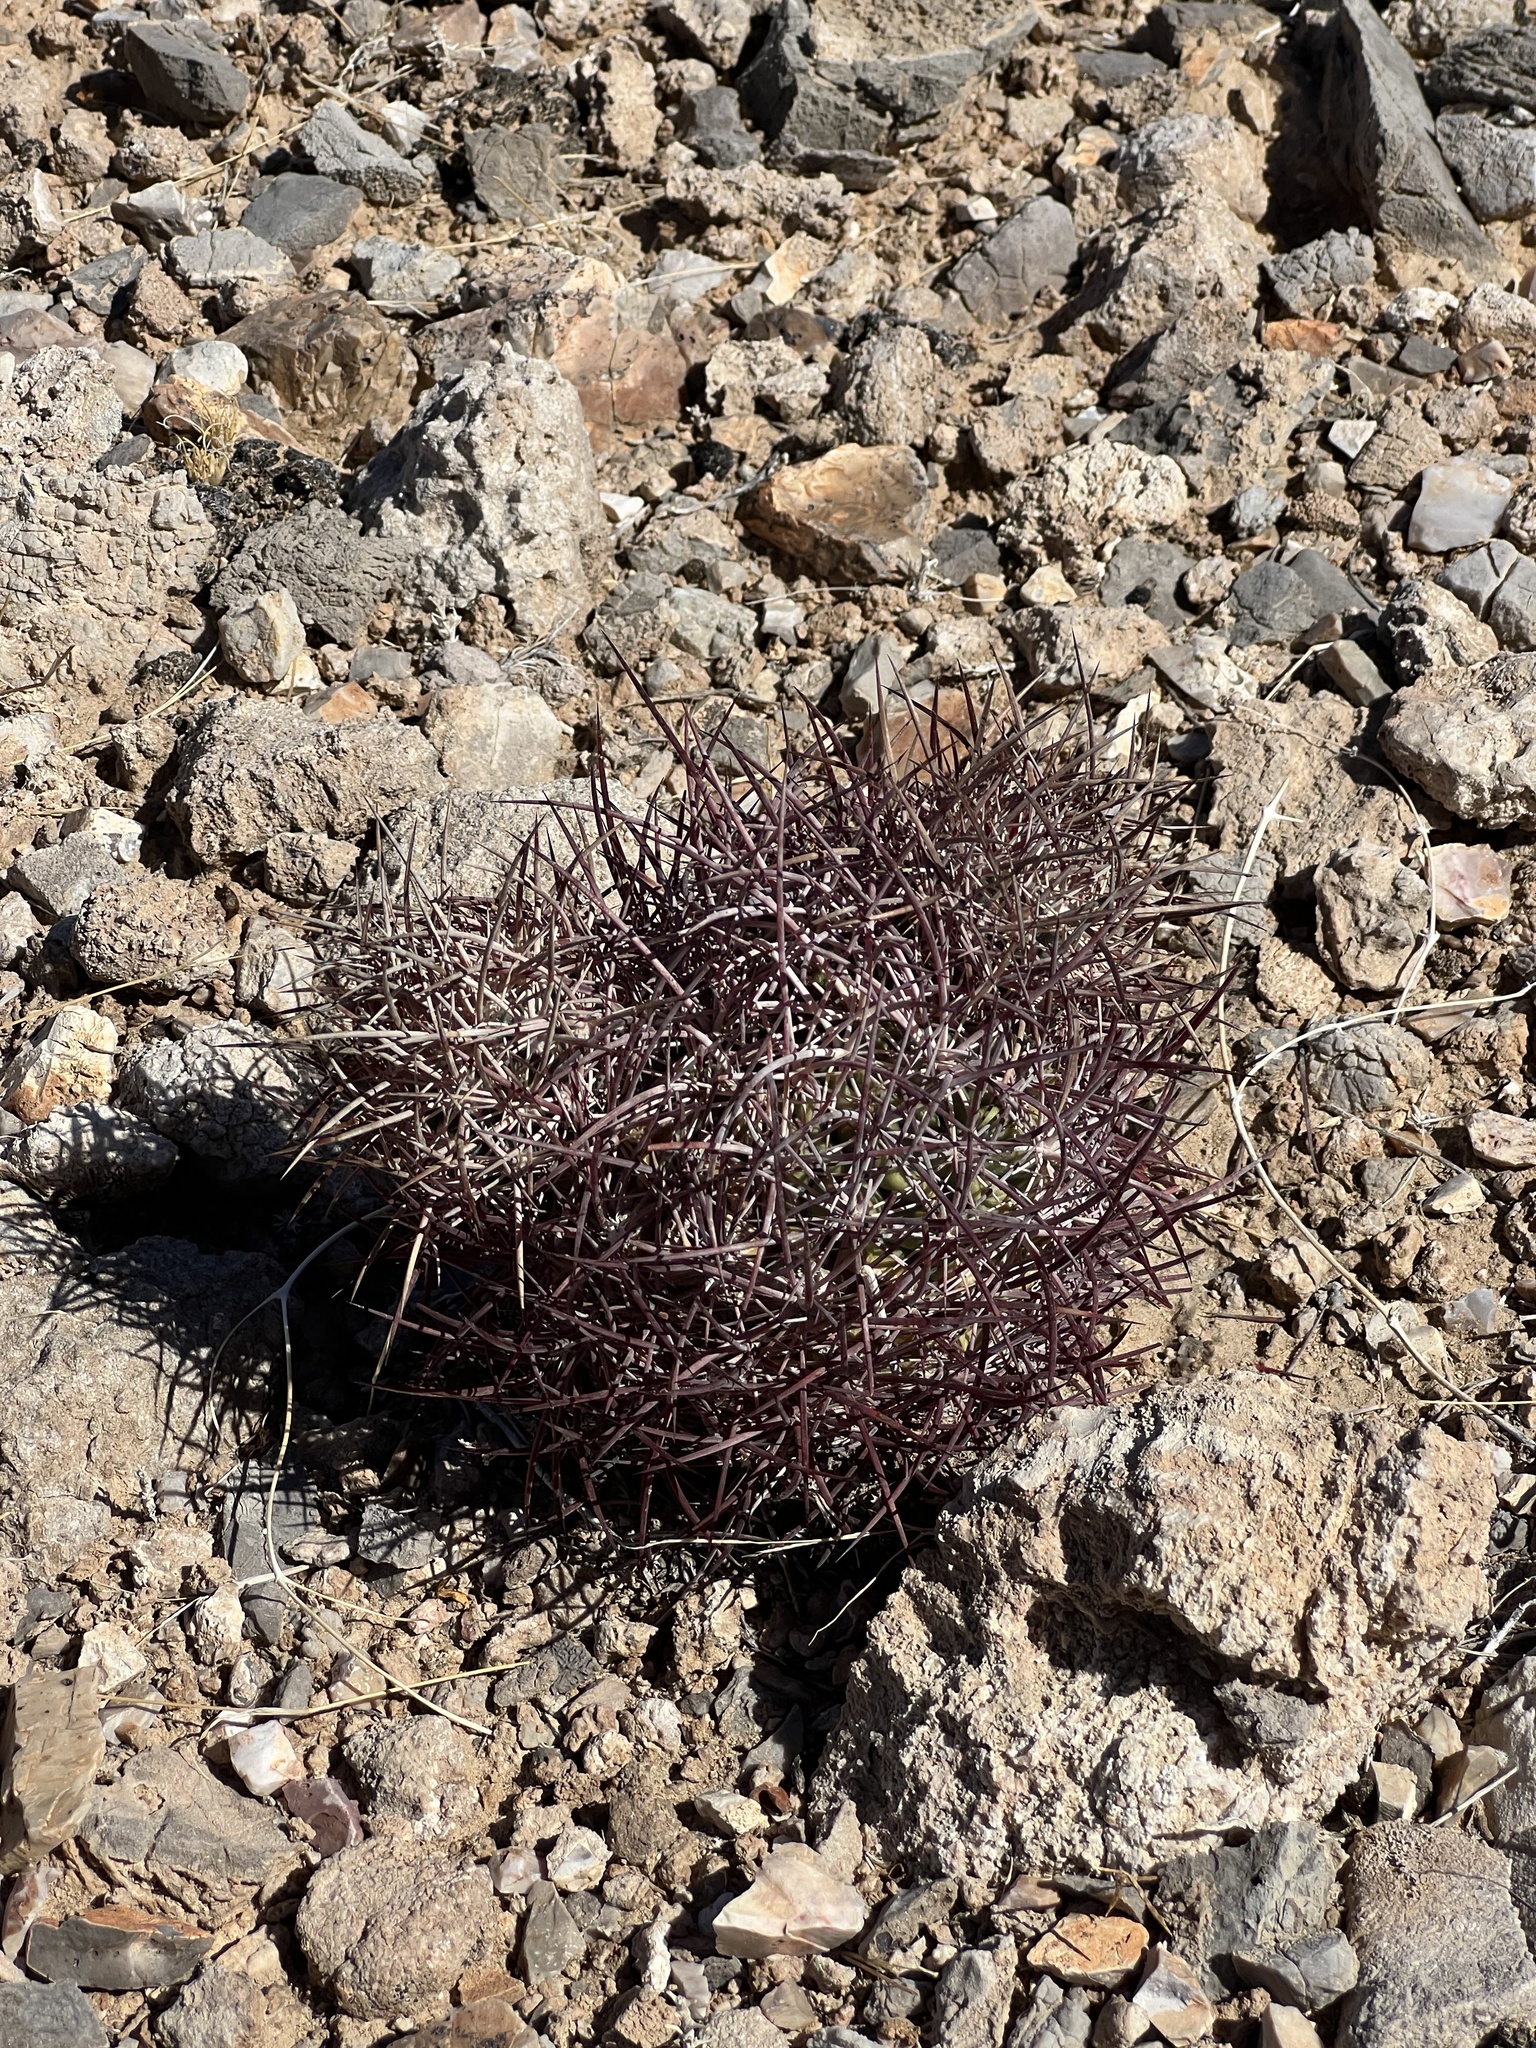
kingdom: Plantae
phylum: Tracheophyta
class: Magnoliopsida
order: Caryophyllales
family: Cactaceae
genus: Sclerocactus
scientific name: Sclerocactus johnsonii
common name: Eight-spine fishhook cactus
